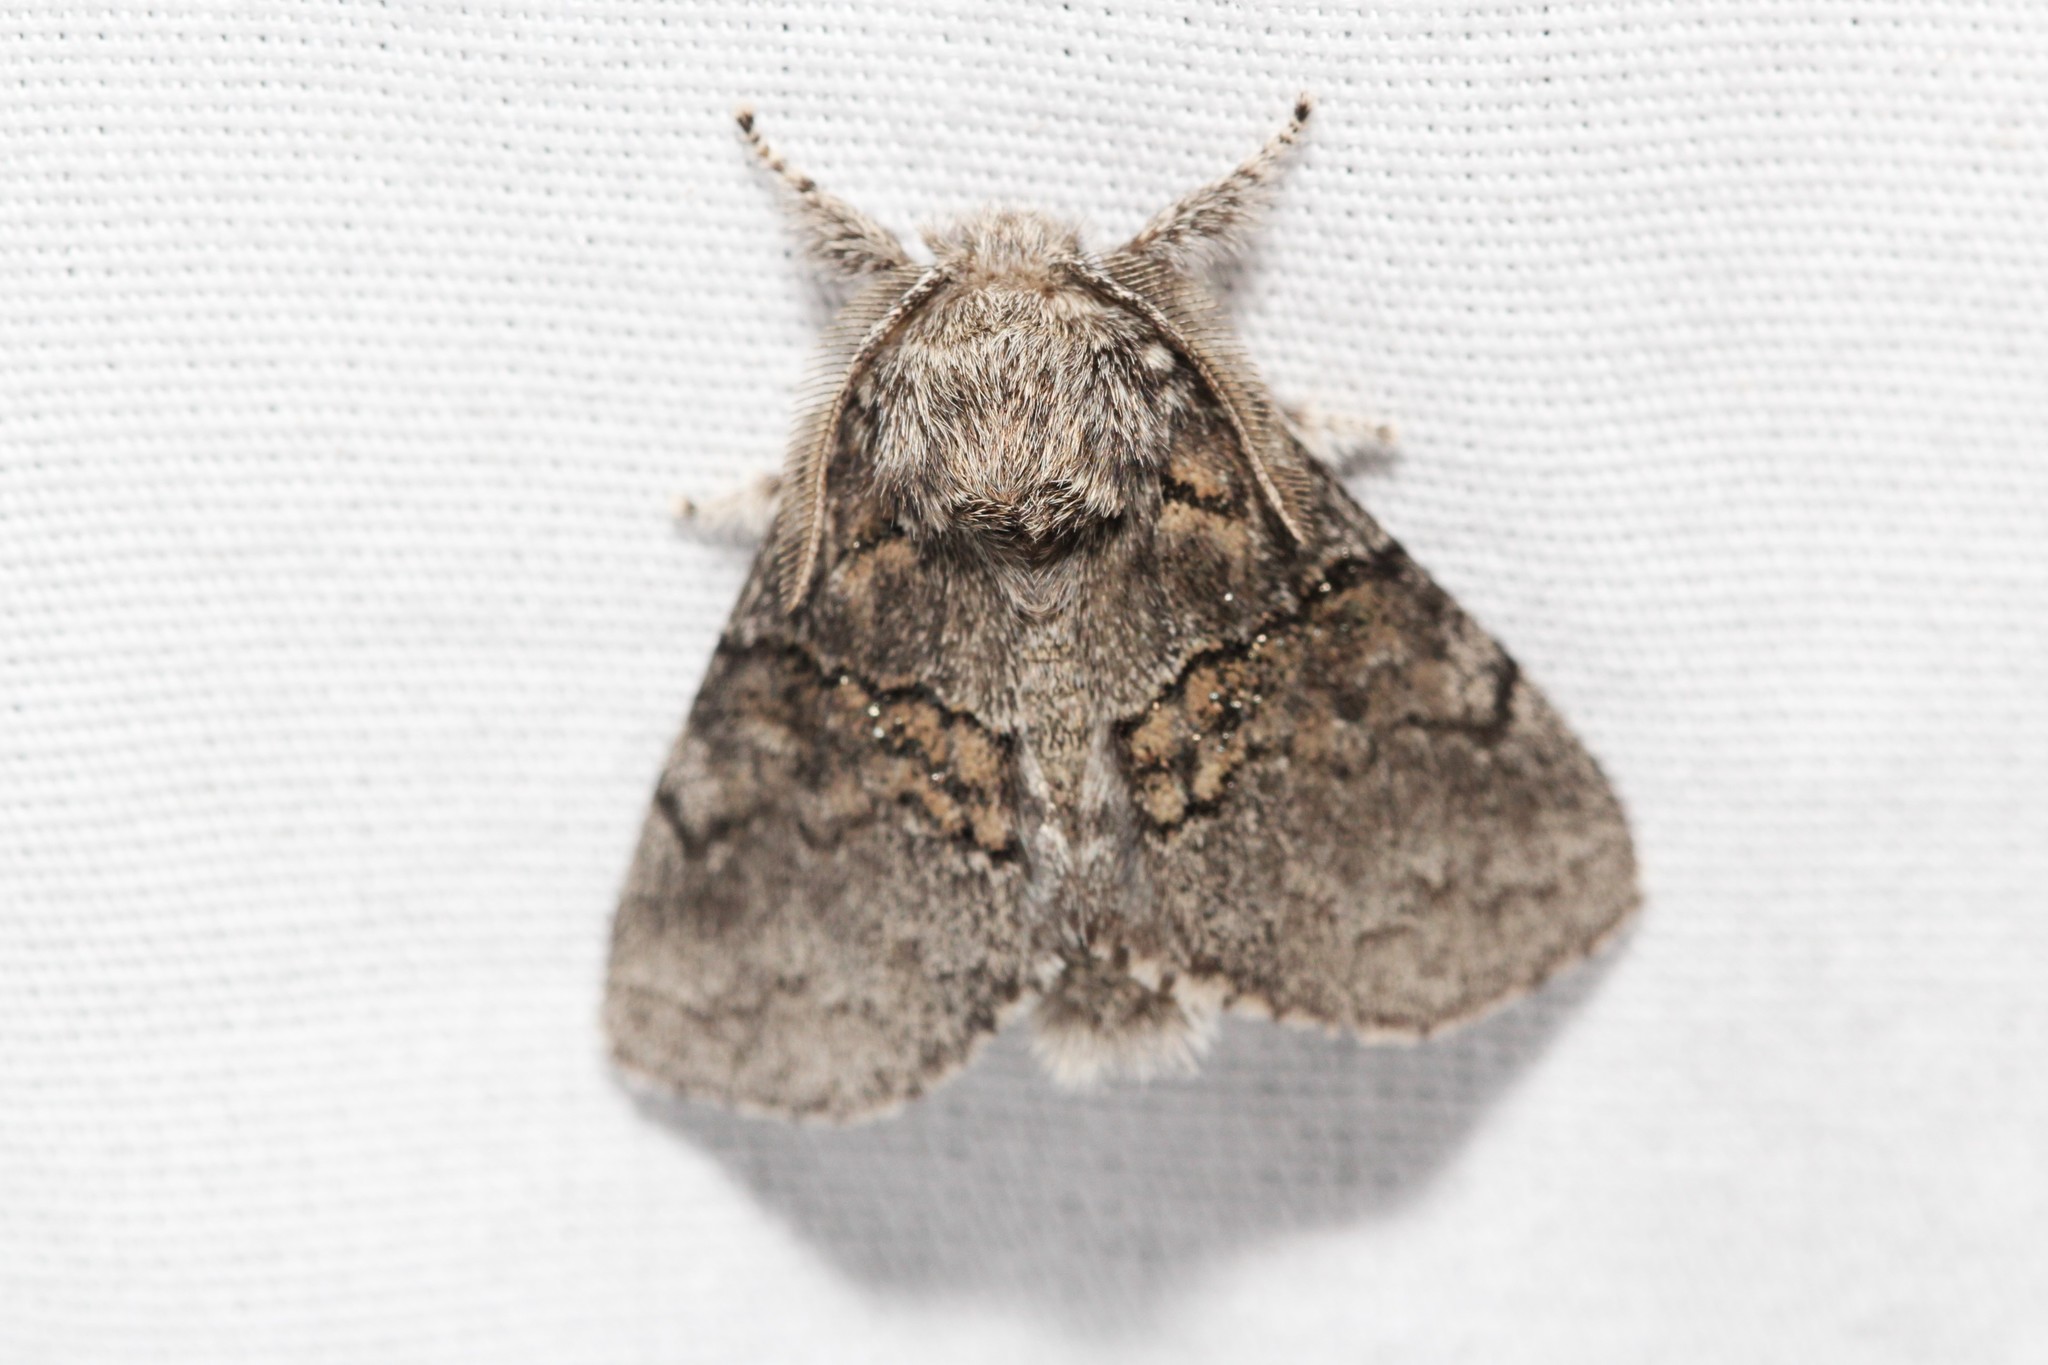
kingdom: Animalia
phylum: Arthropoda
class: Insecta
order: Lepidoptera
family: Notodontidae
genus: Gluphisia
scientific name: Gluphisia septentrionis
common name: Common gluphisia
